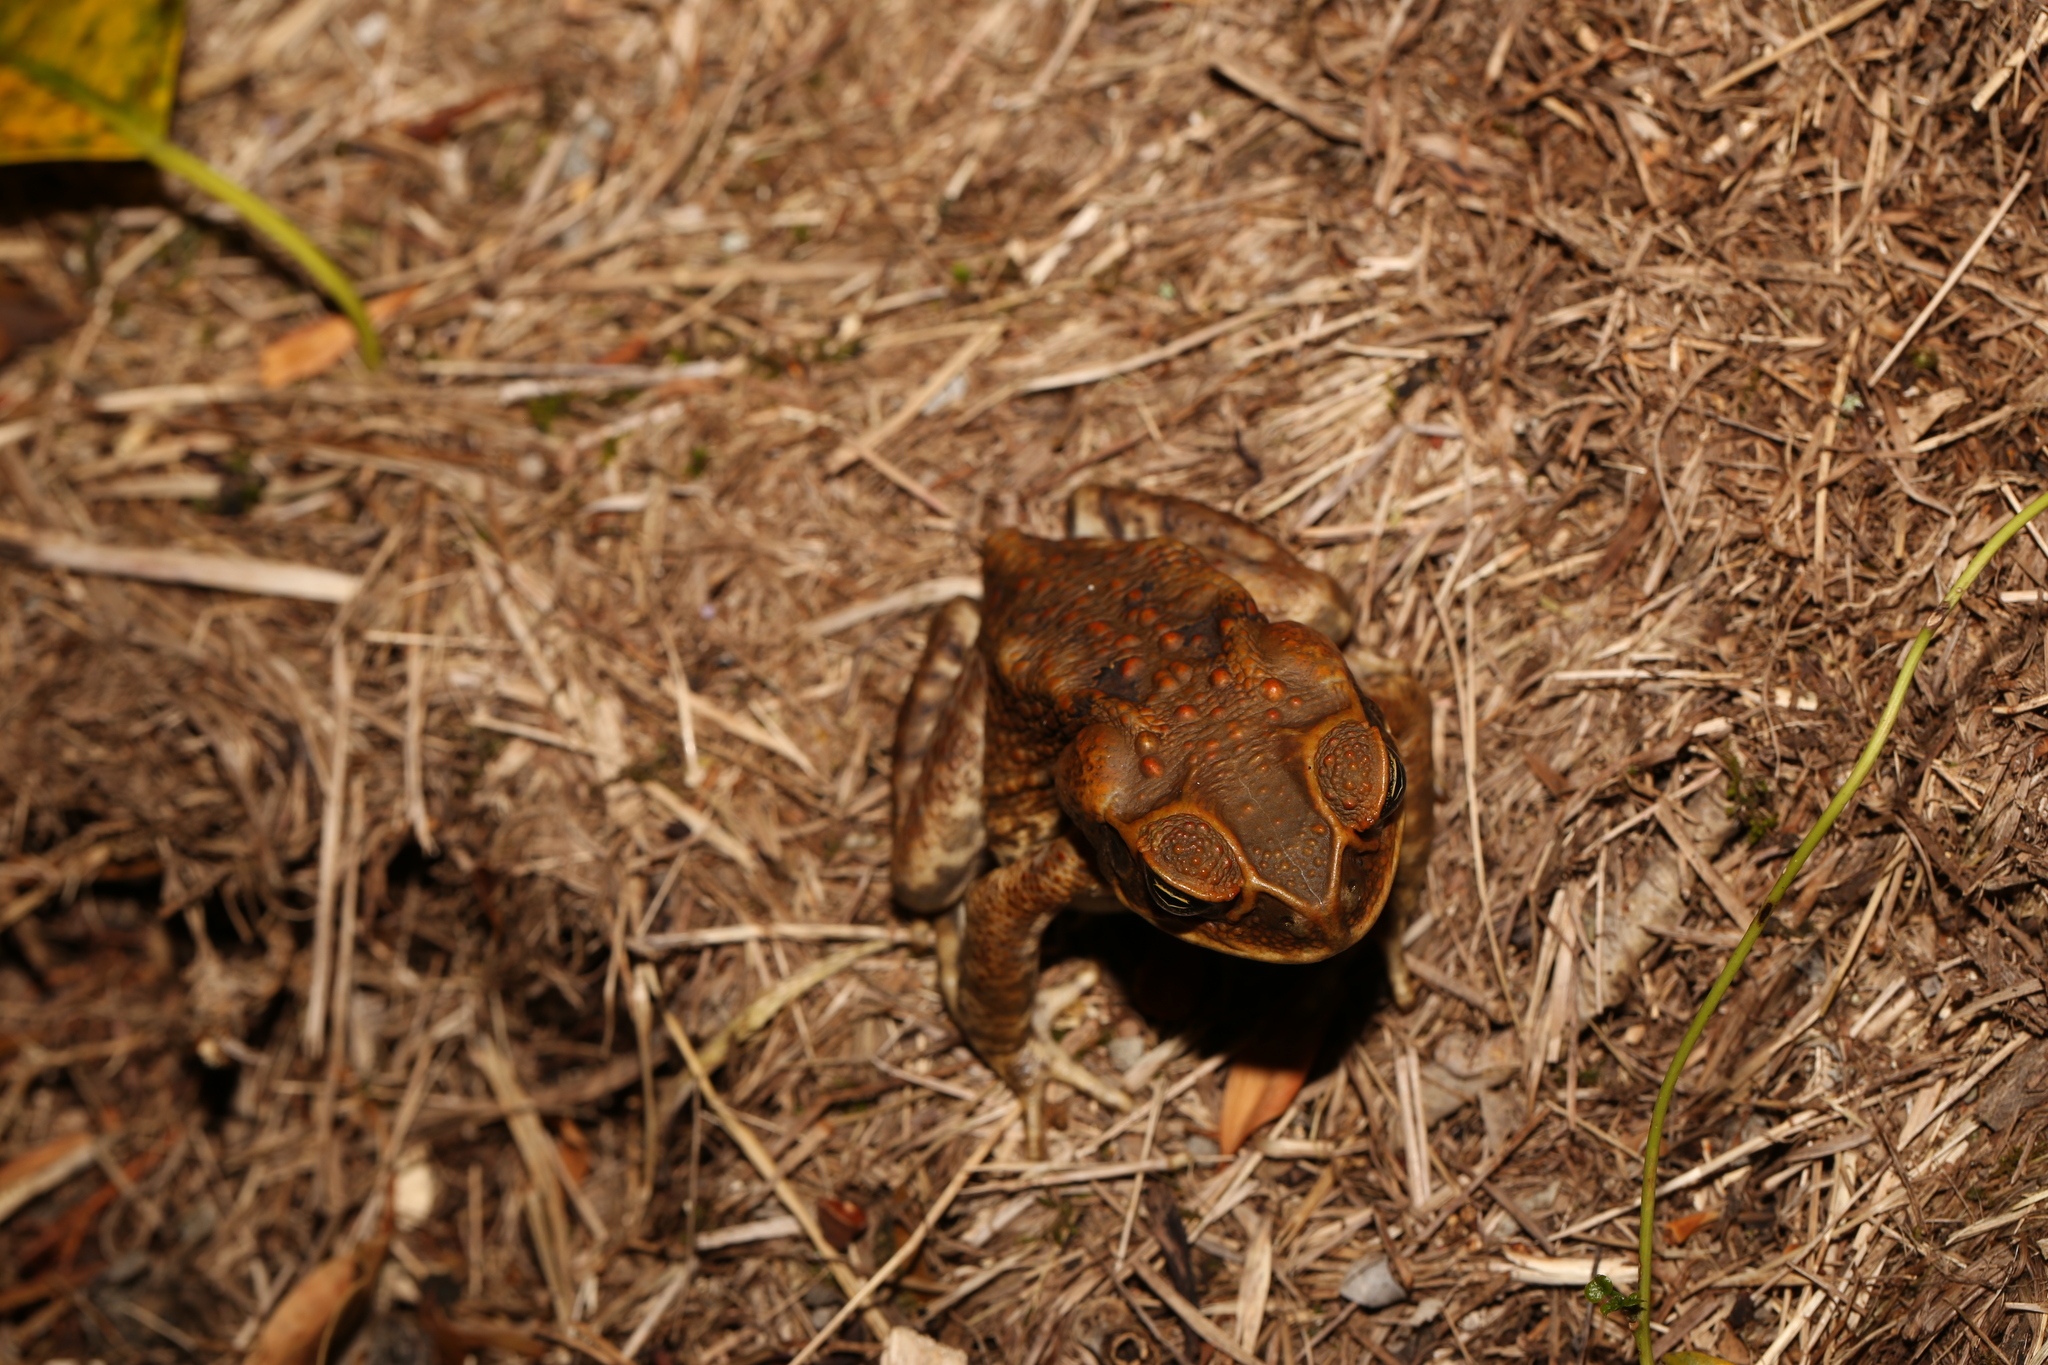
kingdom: Animalia
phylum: Chordata
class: Amphibia
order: Anura
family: Bufonidae
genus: Rhinella
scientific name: Rhinella marina
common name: Cane toad
